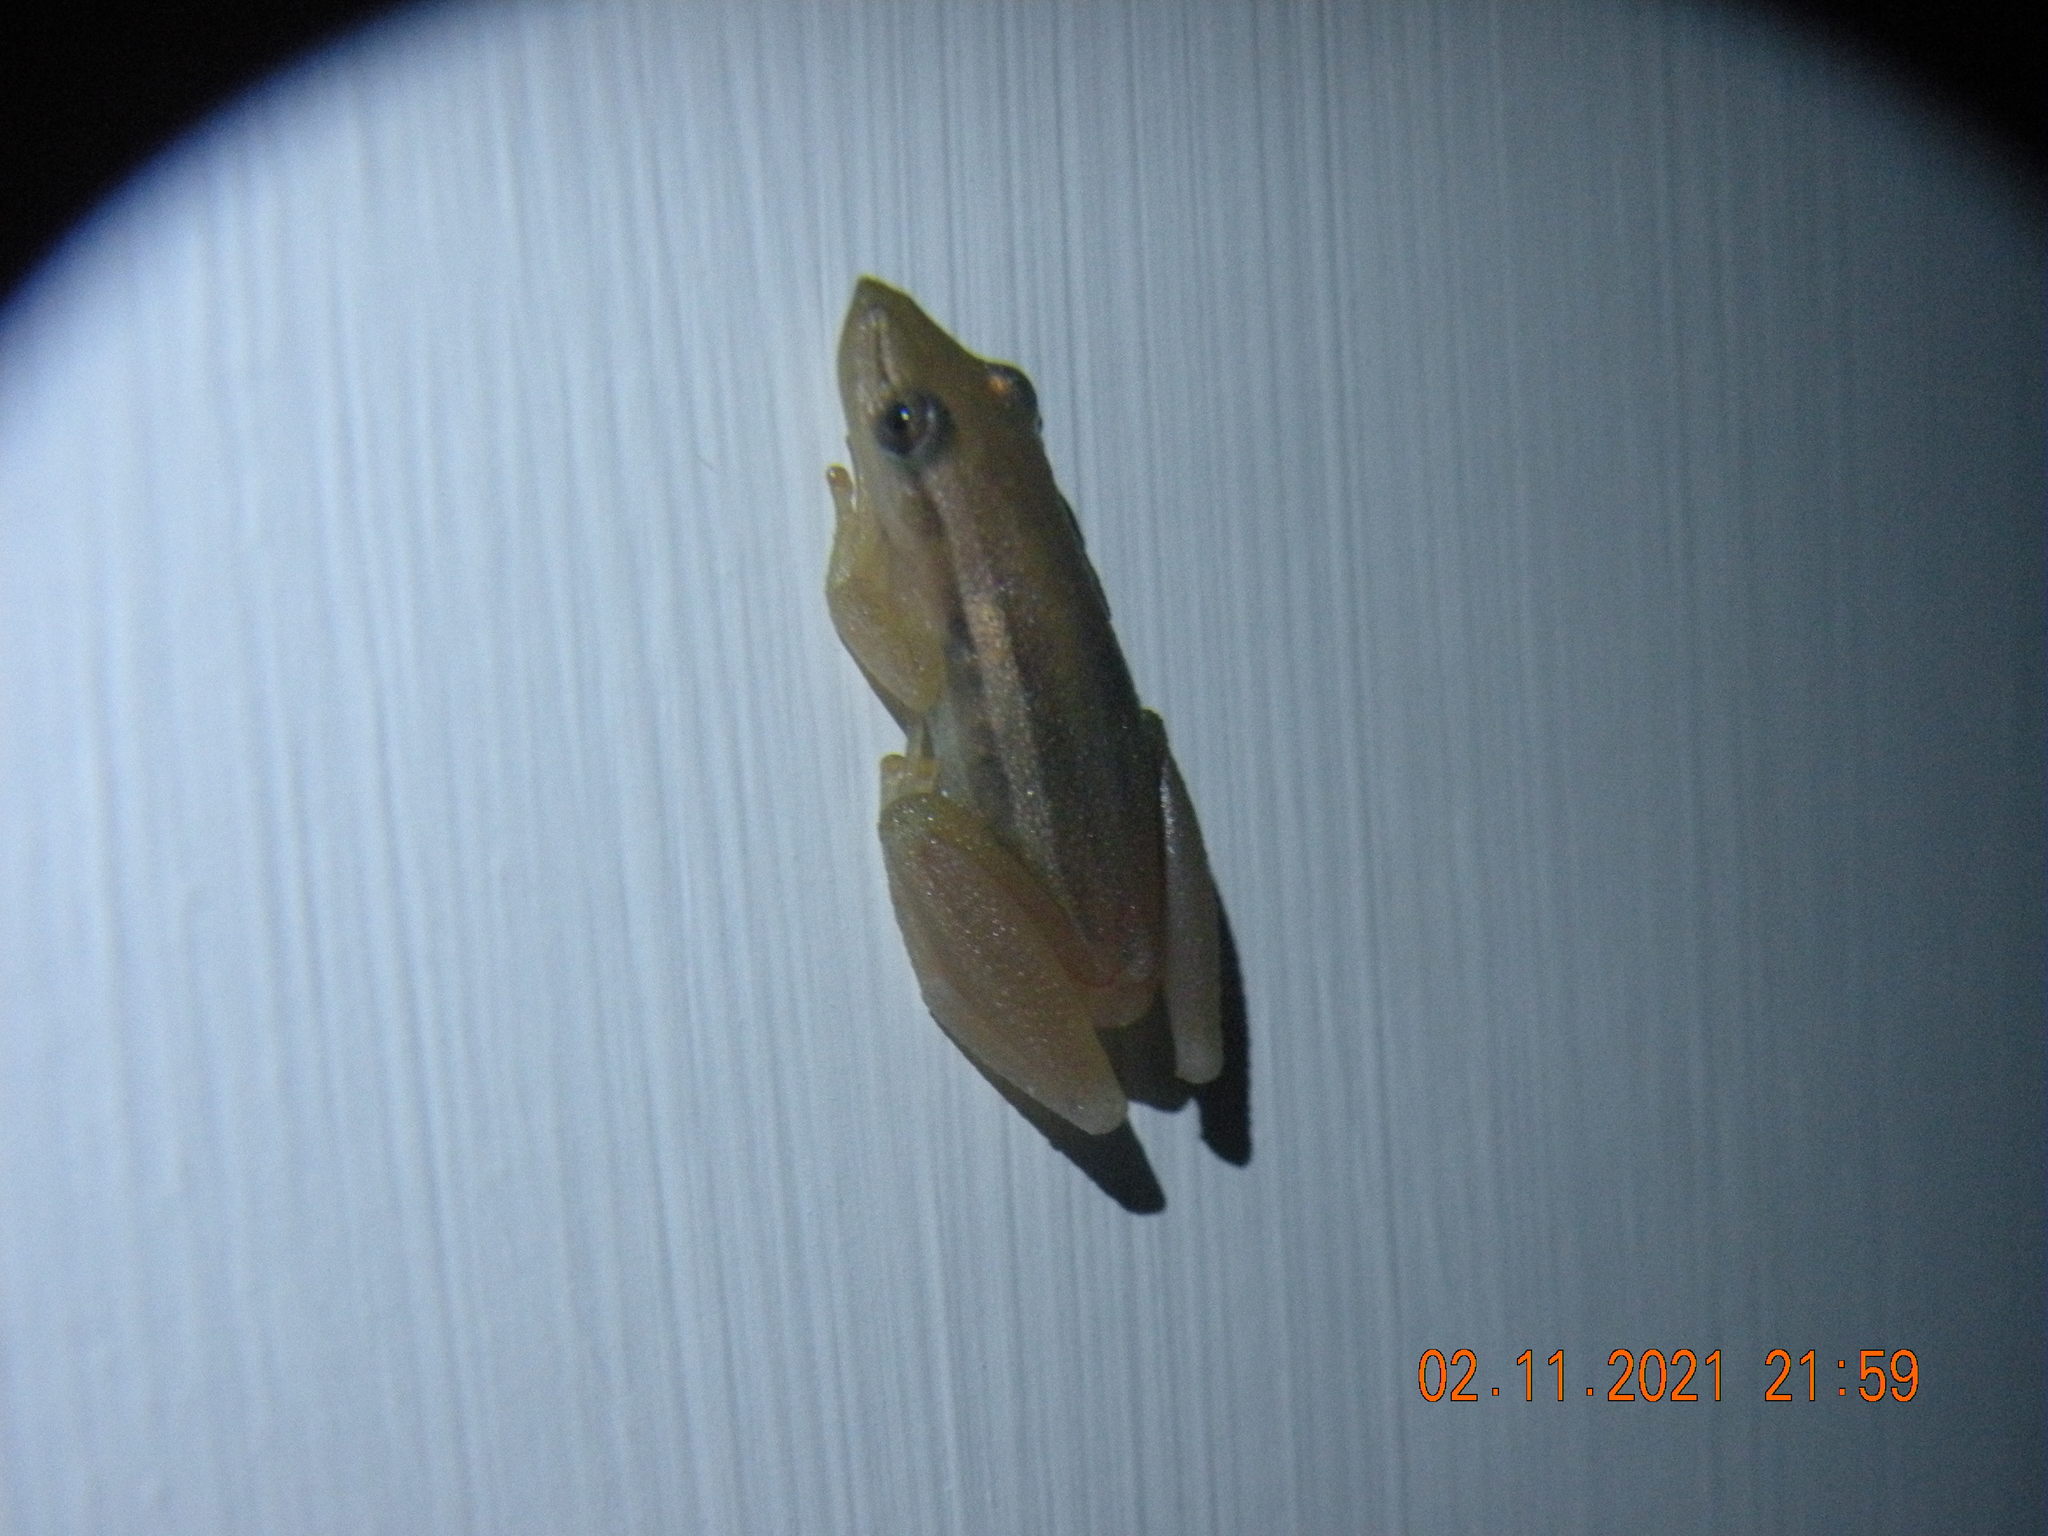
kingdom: Animalia
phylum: Chordata
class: Amphibia
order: Anura
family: Hylidae
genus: Scinax
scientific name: Scinax squalirostris
